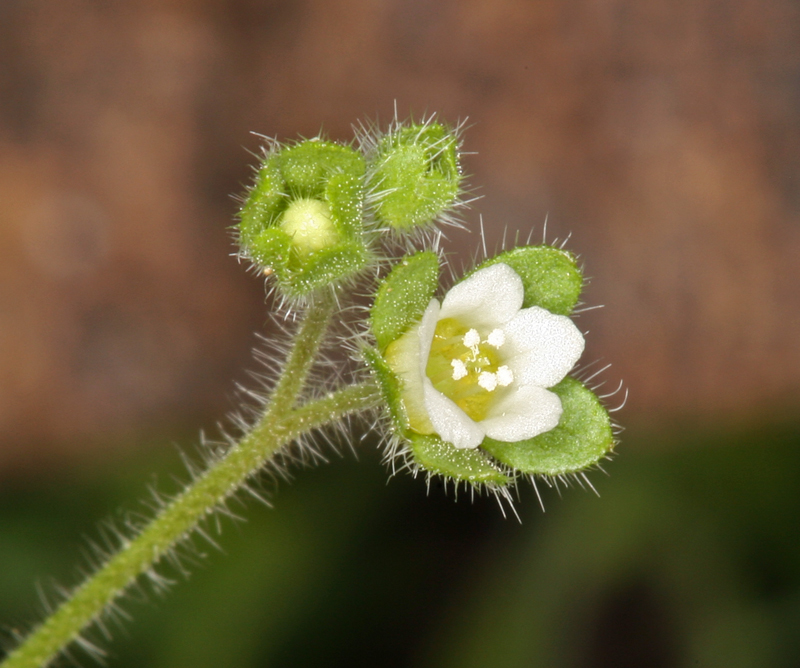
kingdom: Plantae
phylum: Tracheophyta
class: Magnoliopsida
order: Boraginales
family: Hydrophyllaceae
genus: Eucrypta
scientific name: Eucrypta chrysanthemifolia
